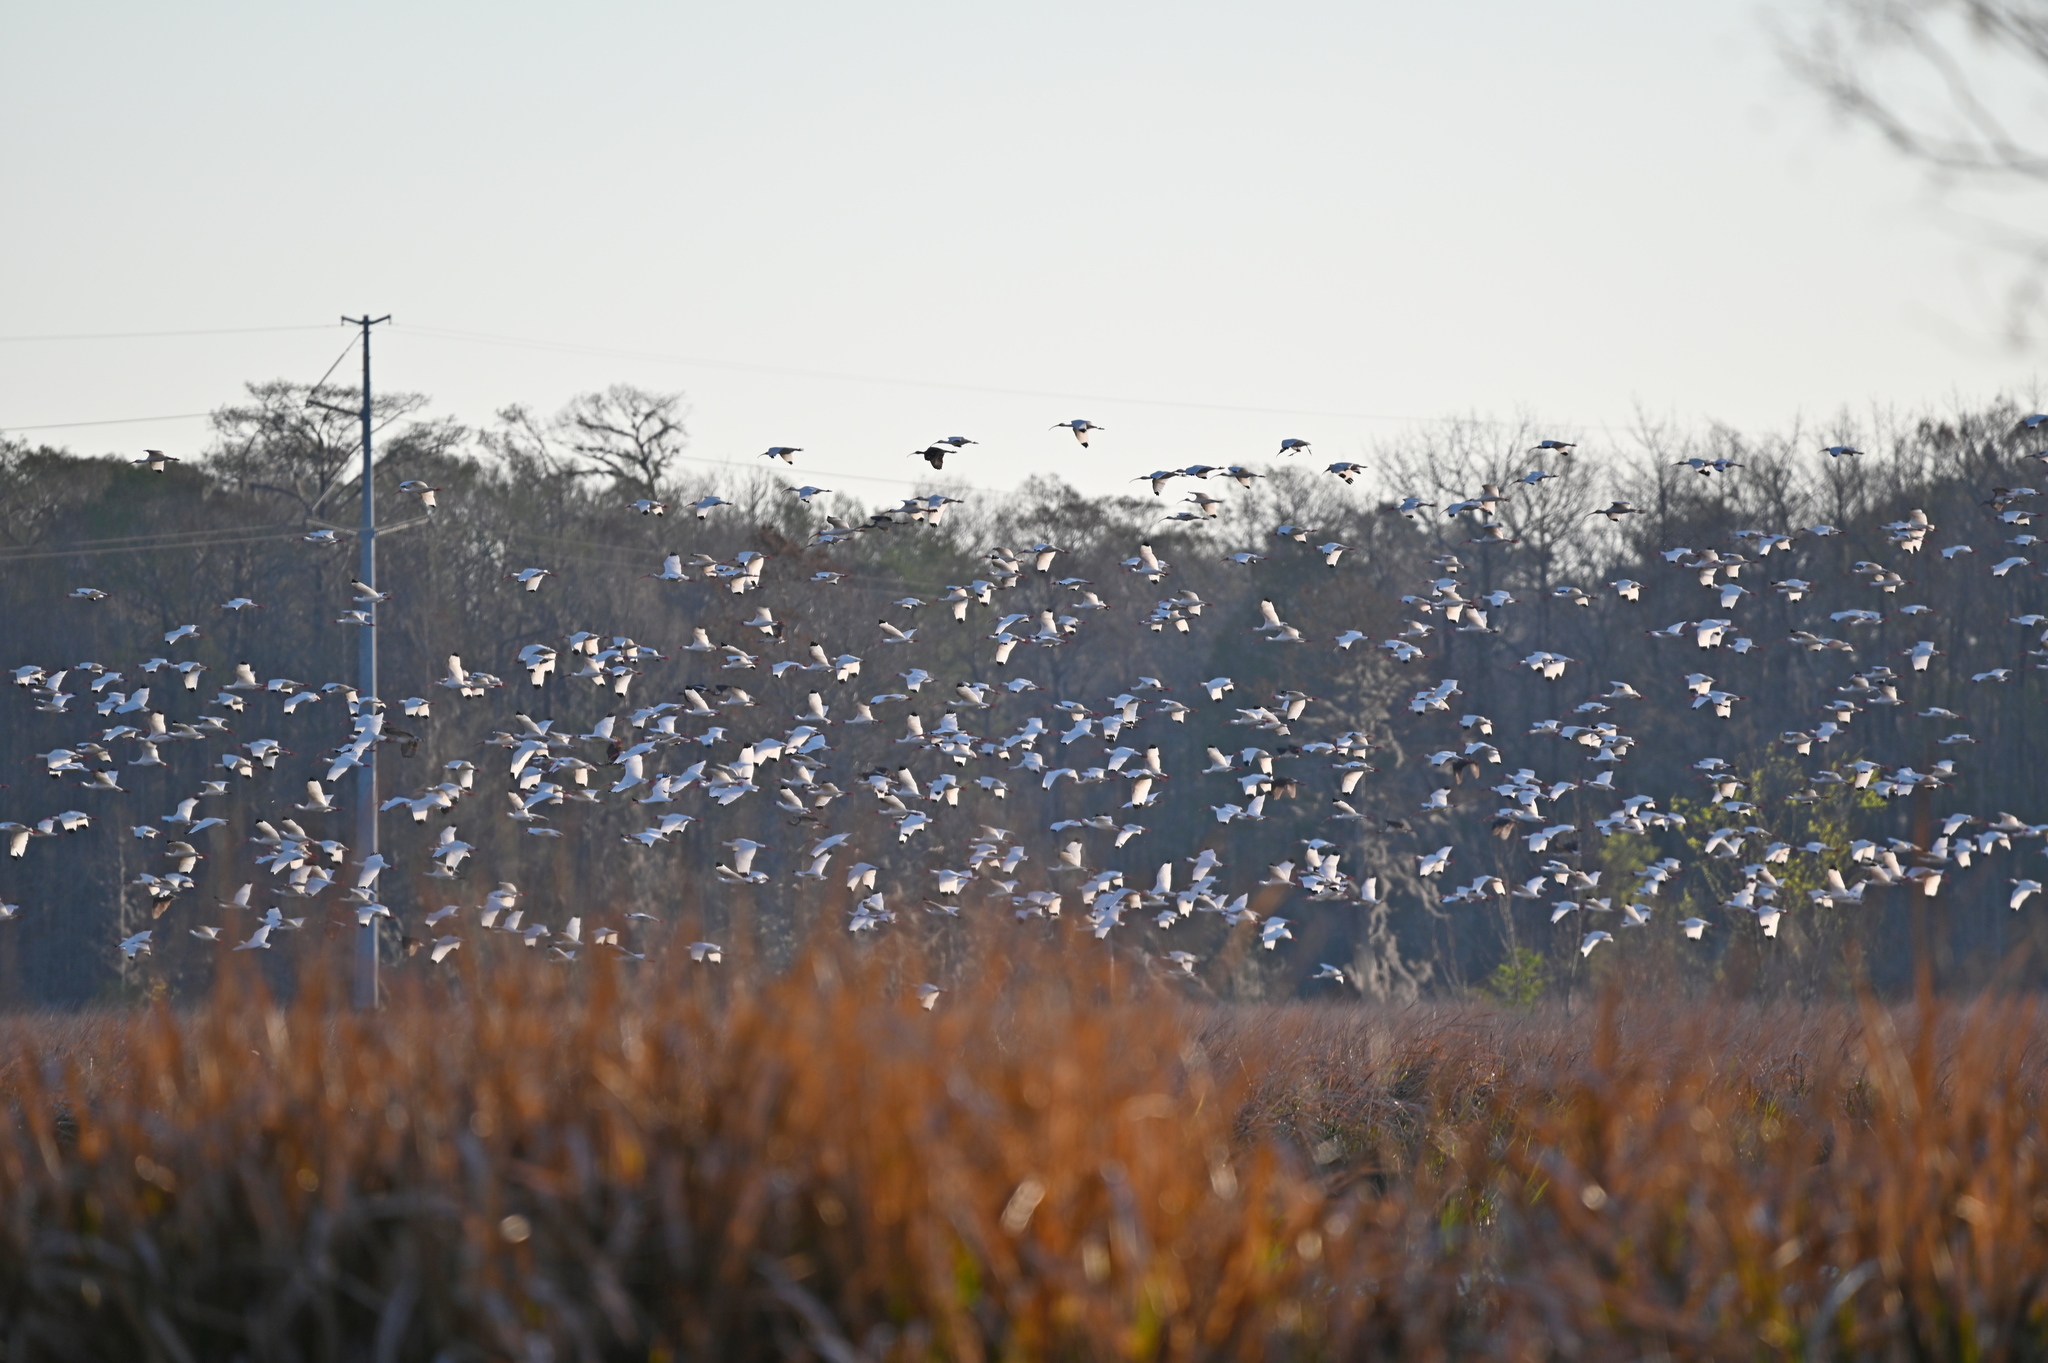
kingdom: Animalia
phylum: Chordata
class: Aves
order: Pelecaniformes
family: Threskiornithidae
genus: Eudocimus
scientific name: Eudocimus albus
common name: White ibis
